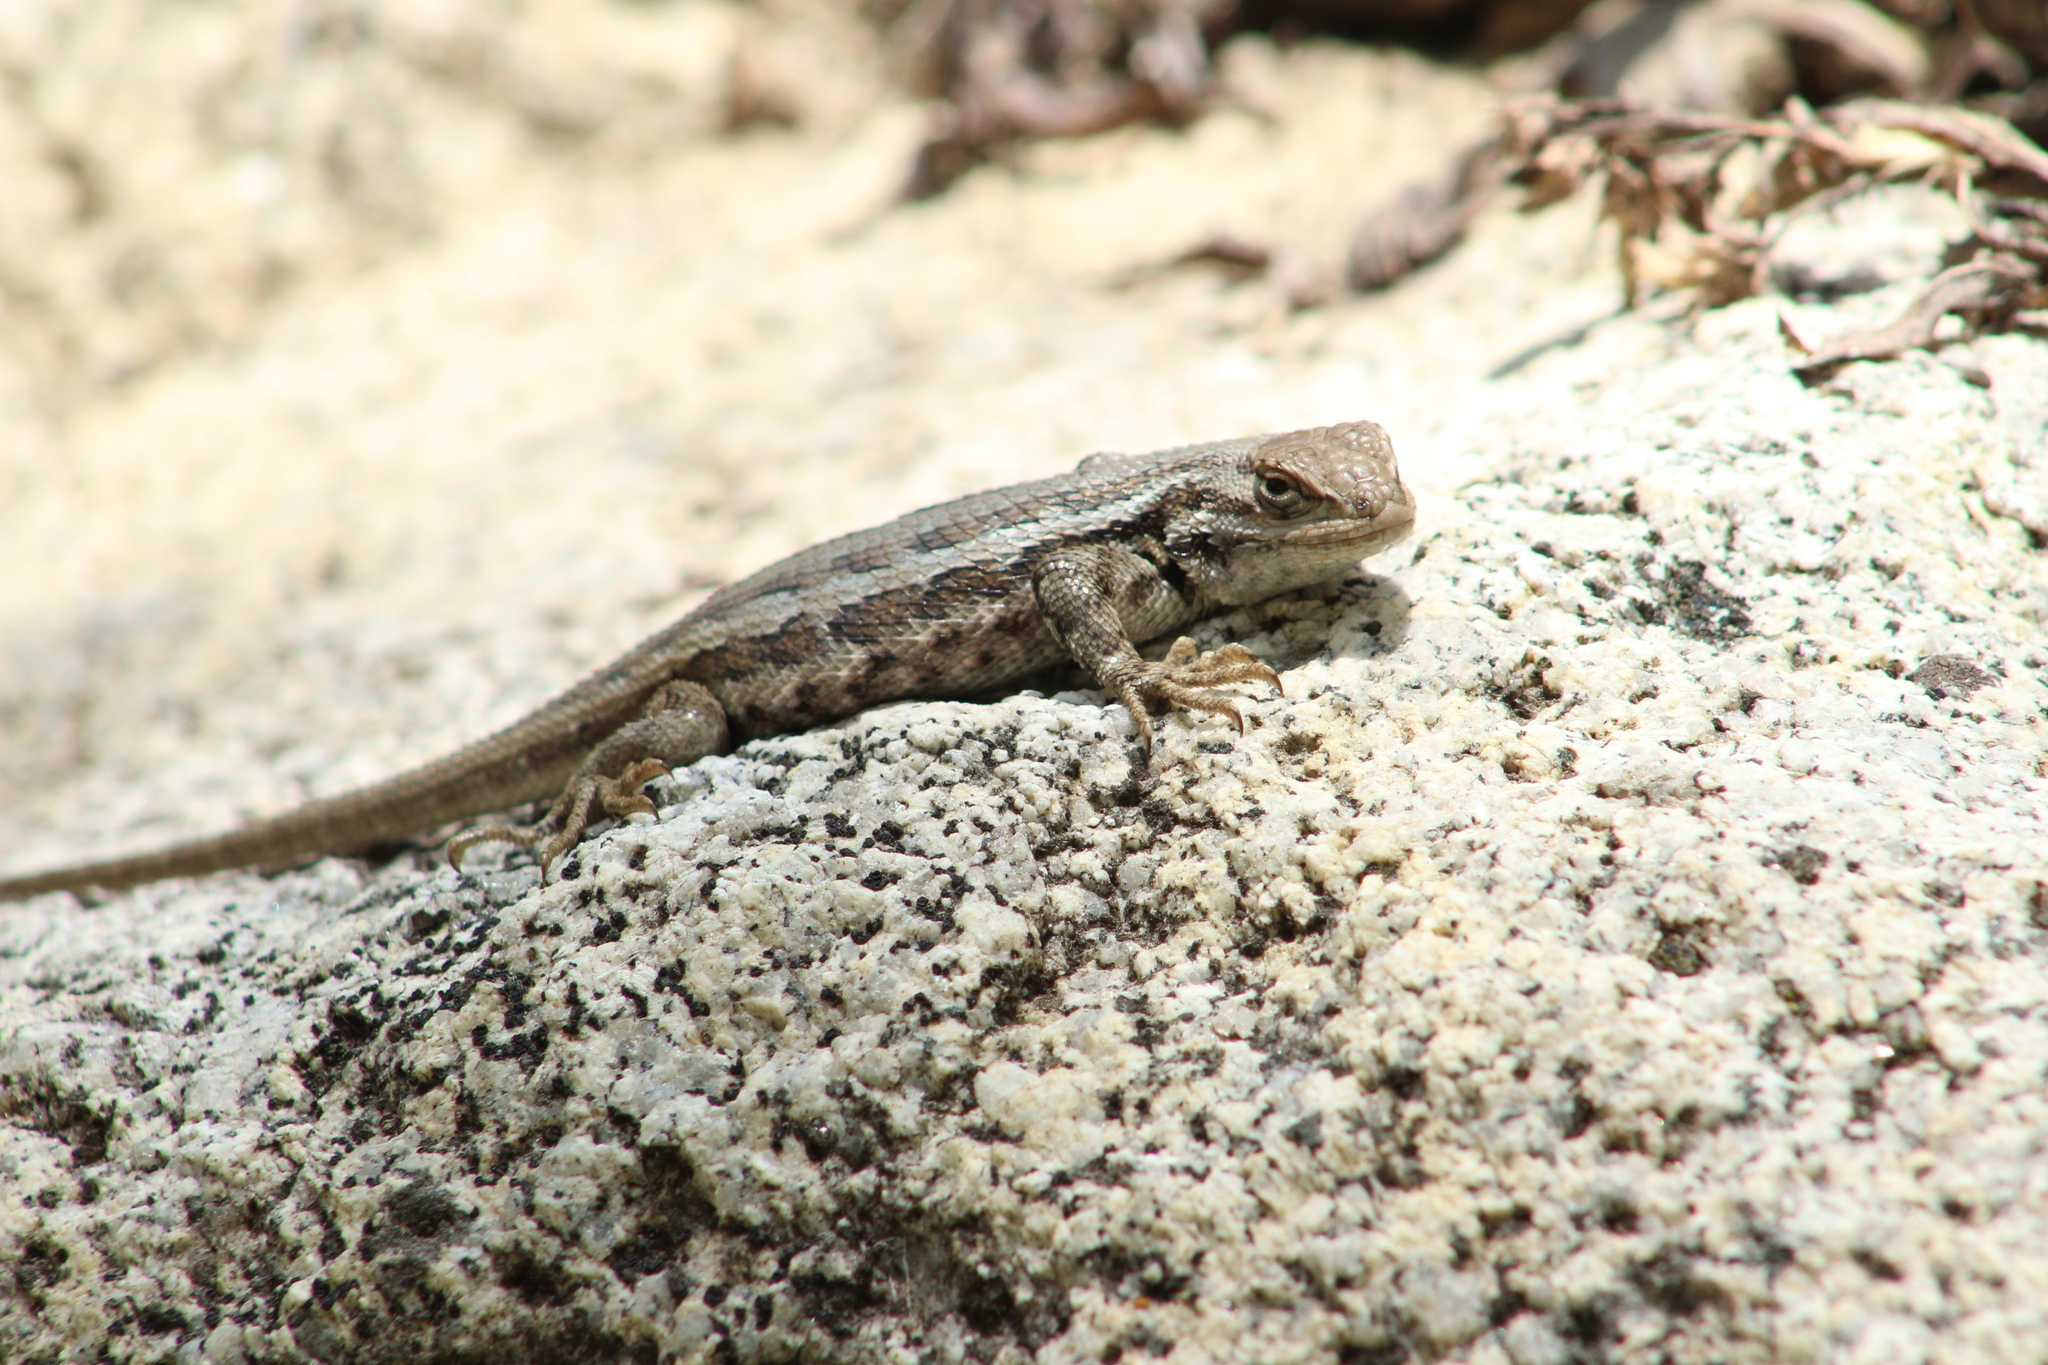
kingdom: Animalia
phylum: Chordata
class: Squamata
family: Phrynosomatidae
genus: Sceloporus
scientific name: Sceloporus graciosus
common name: Sagebrush lizard
